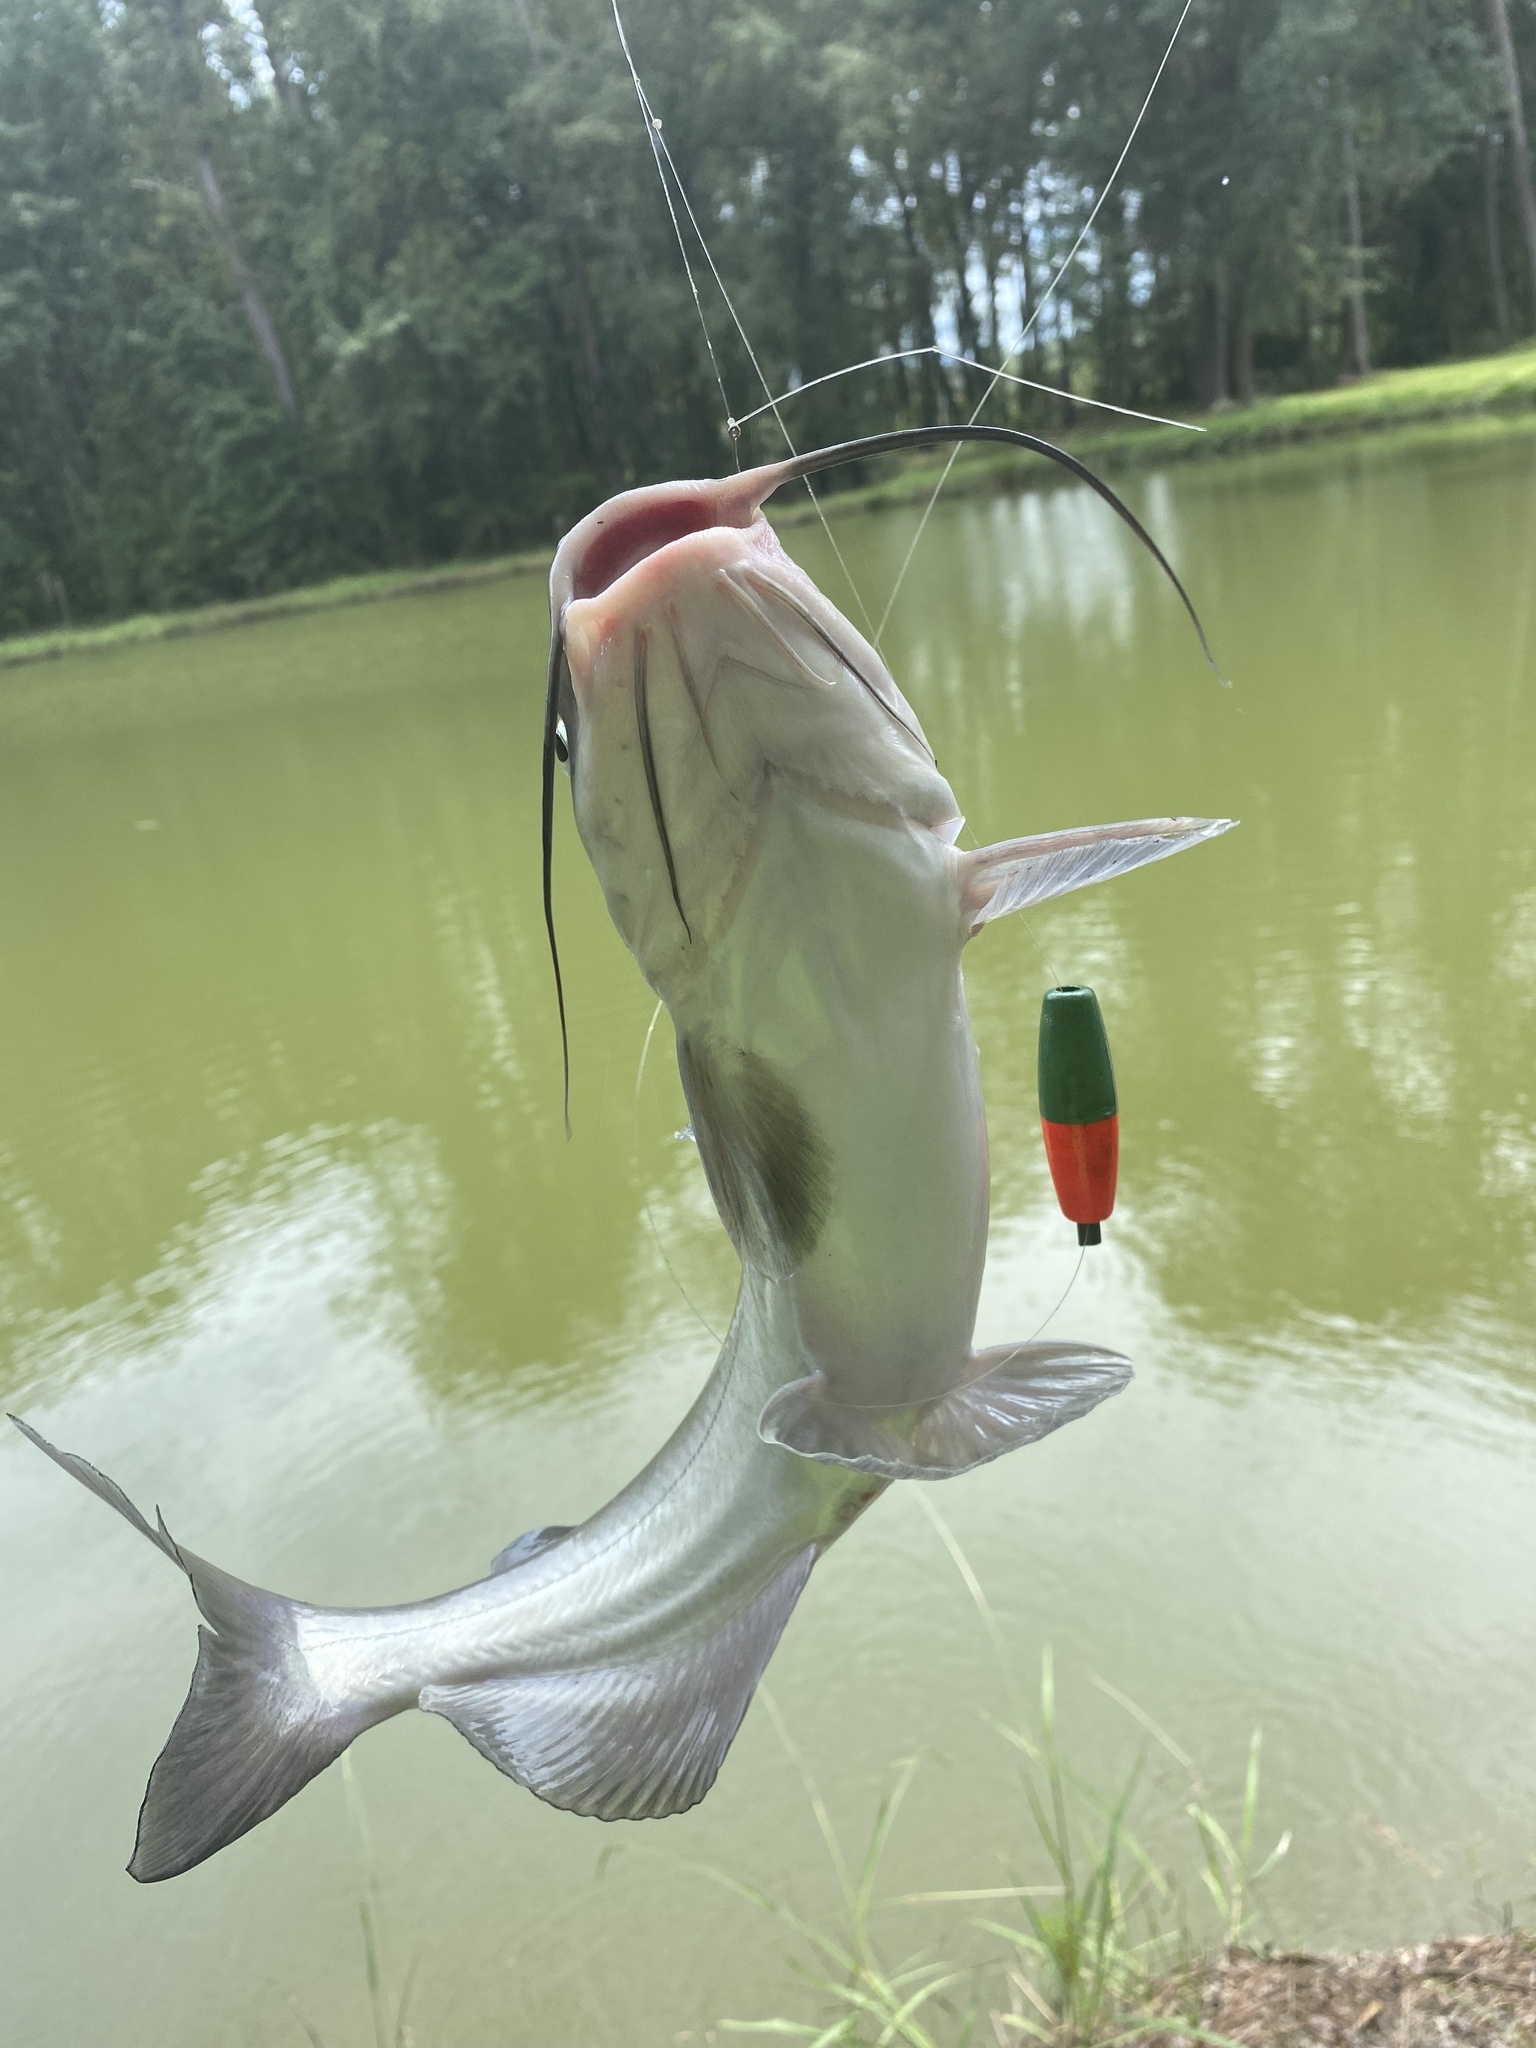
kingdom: Animalia
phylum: Chordata
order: Siluriformes
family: Ictaluridae
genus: Ictalurus
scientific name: Ictalurus punctatus
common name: Channel catfish
